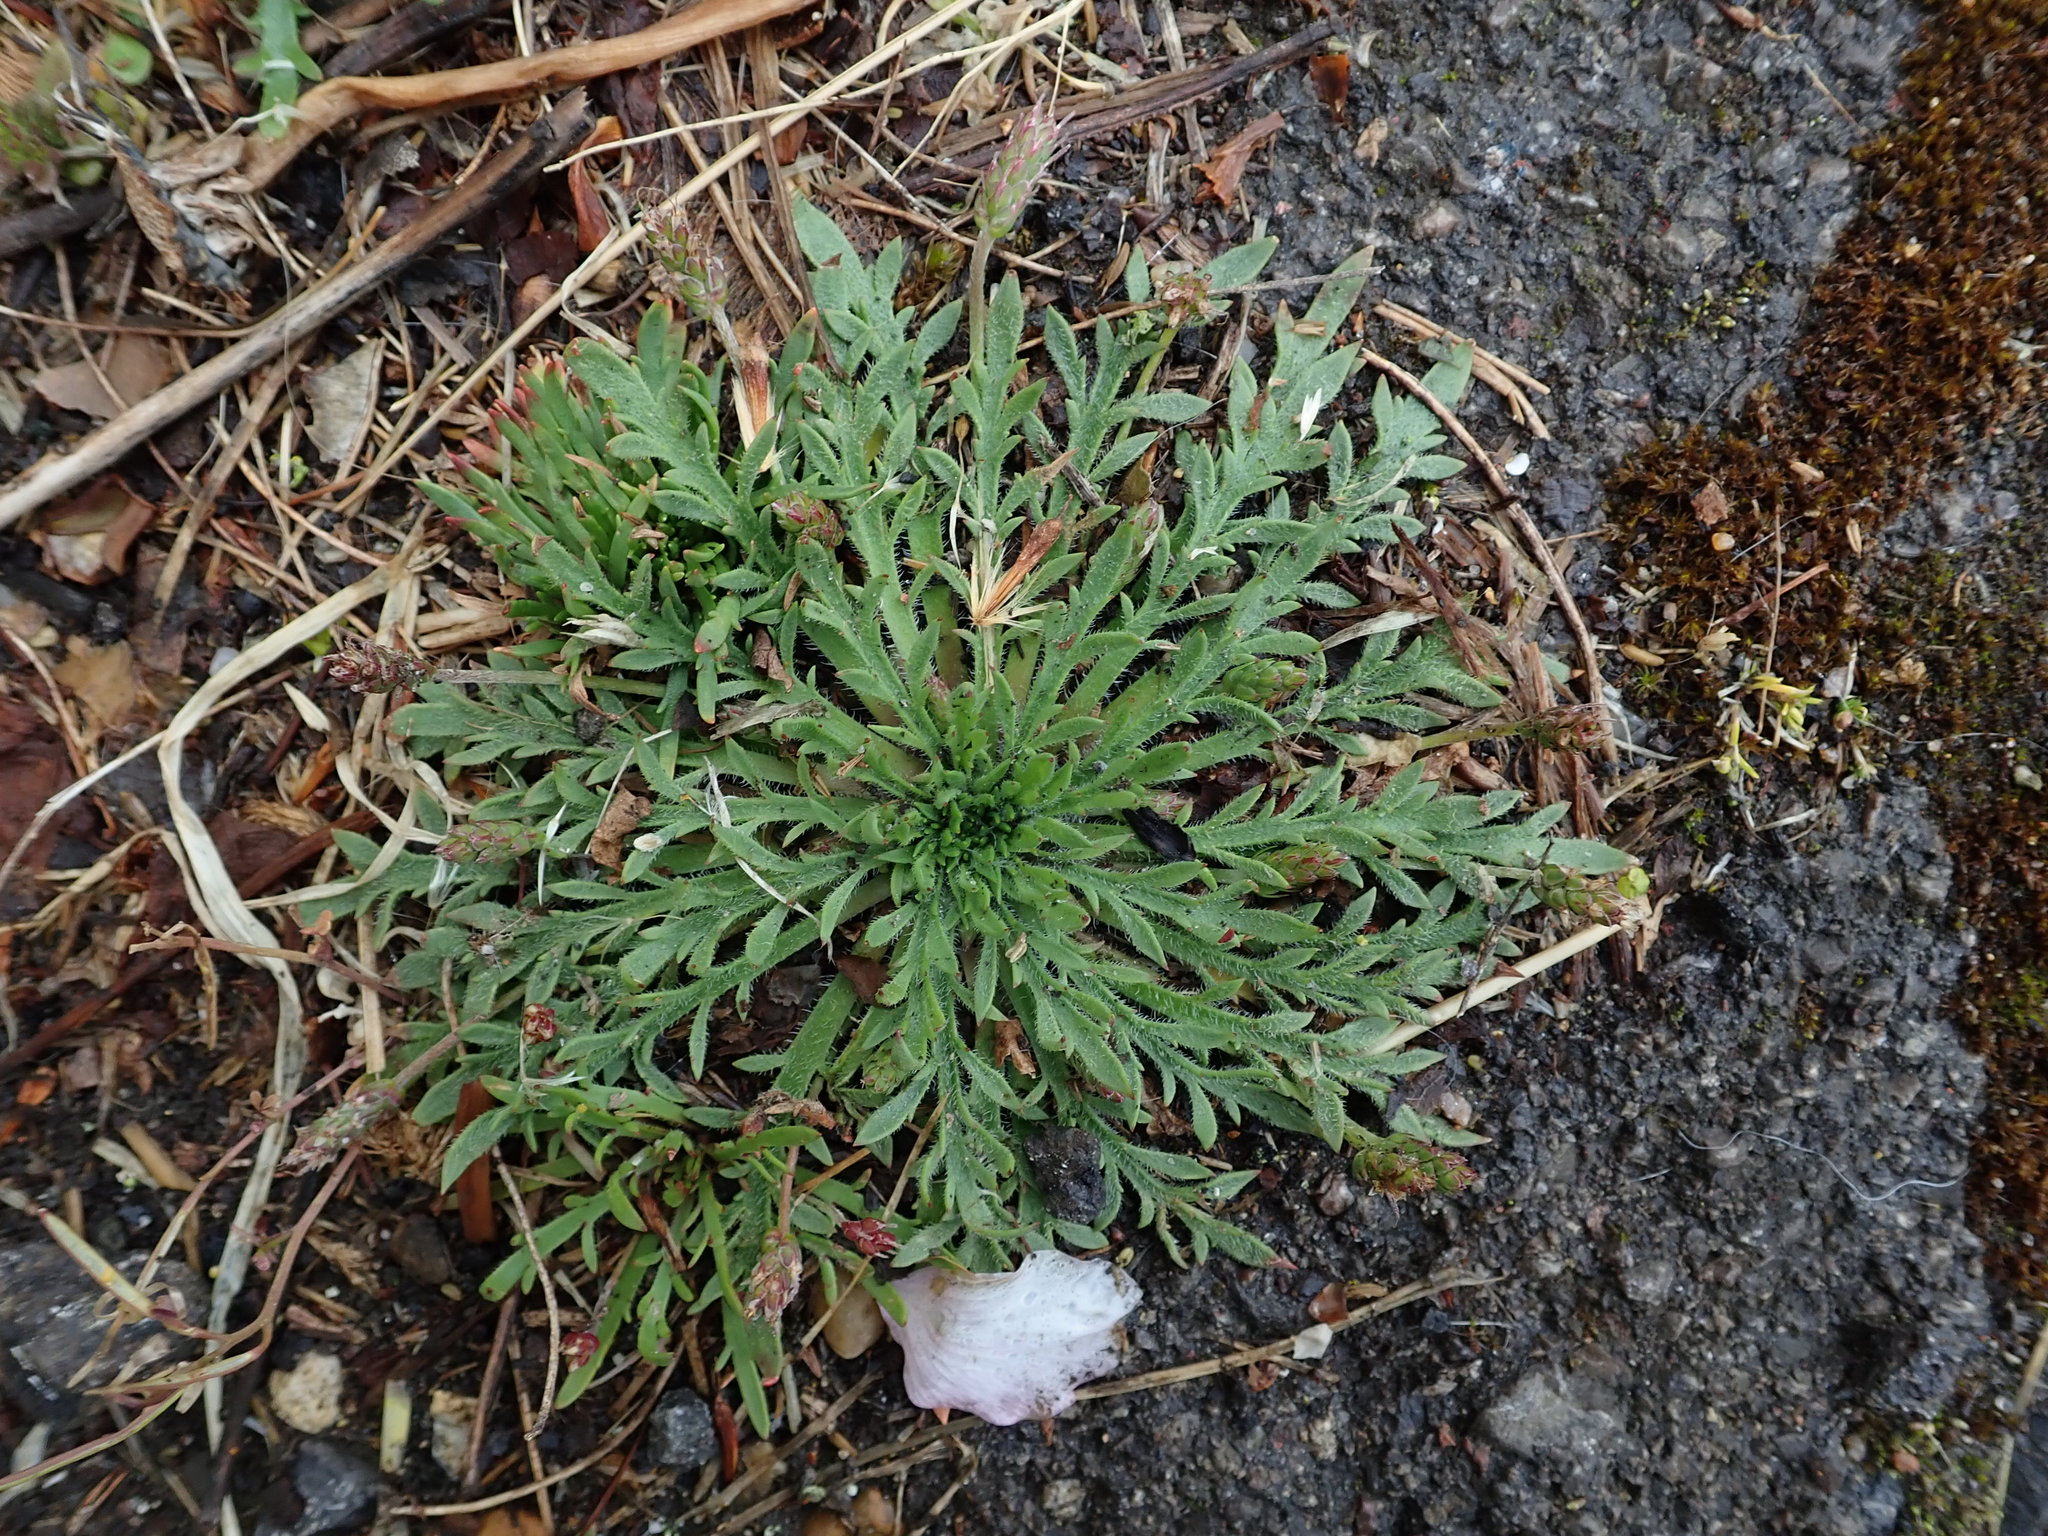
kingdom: Plantae
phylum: Tracheophyta
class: Magnoliopsida
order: Lamiales
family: Plantaginaceae
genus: Plantago
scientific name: Plantago coronopus
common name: Buck's-horn plantain
